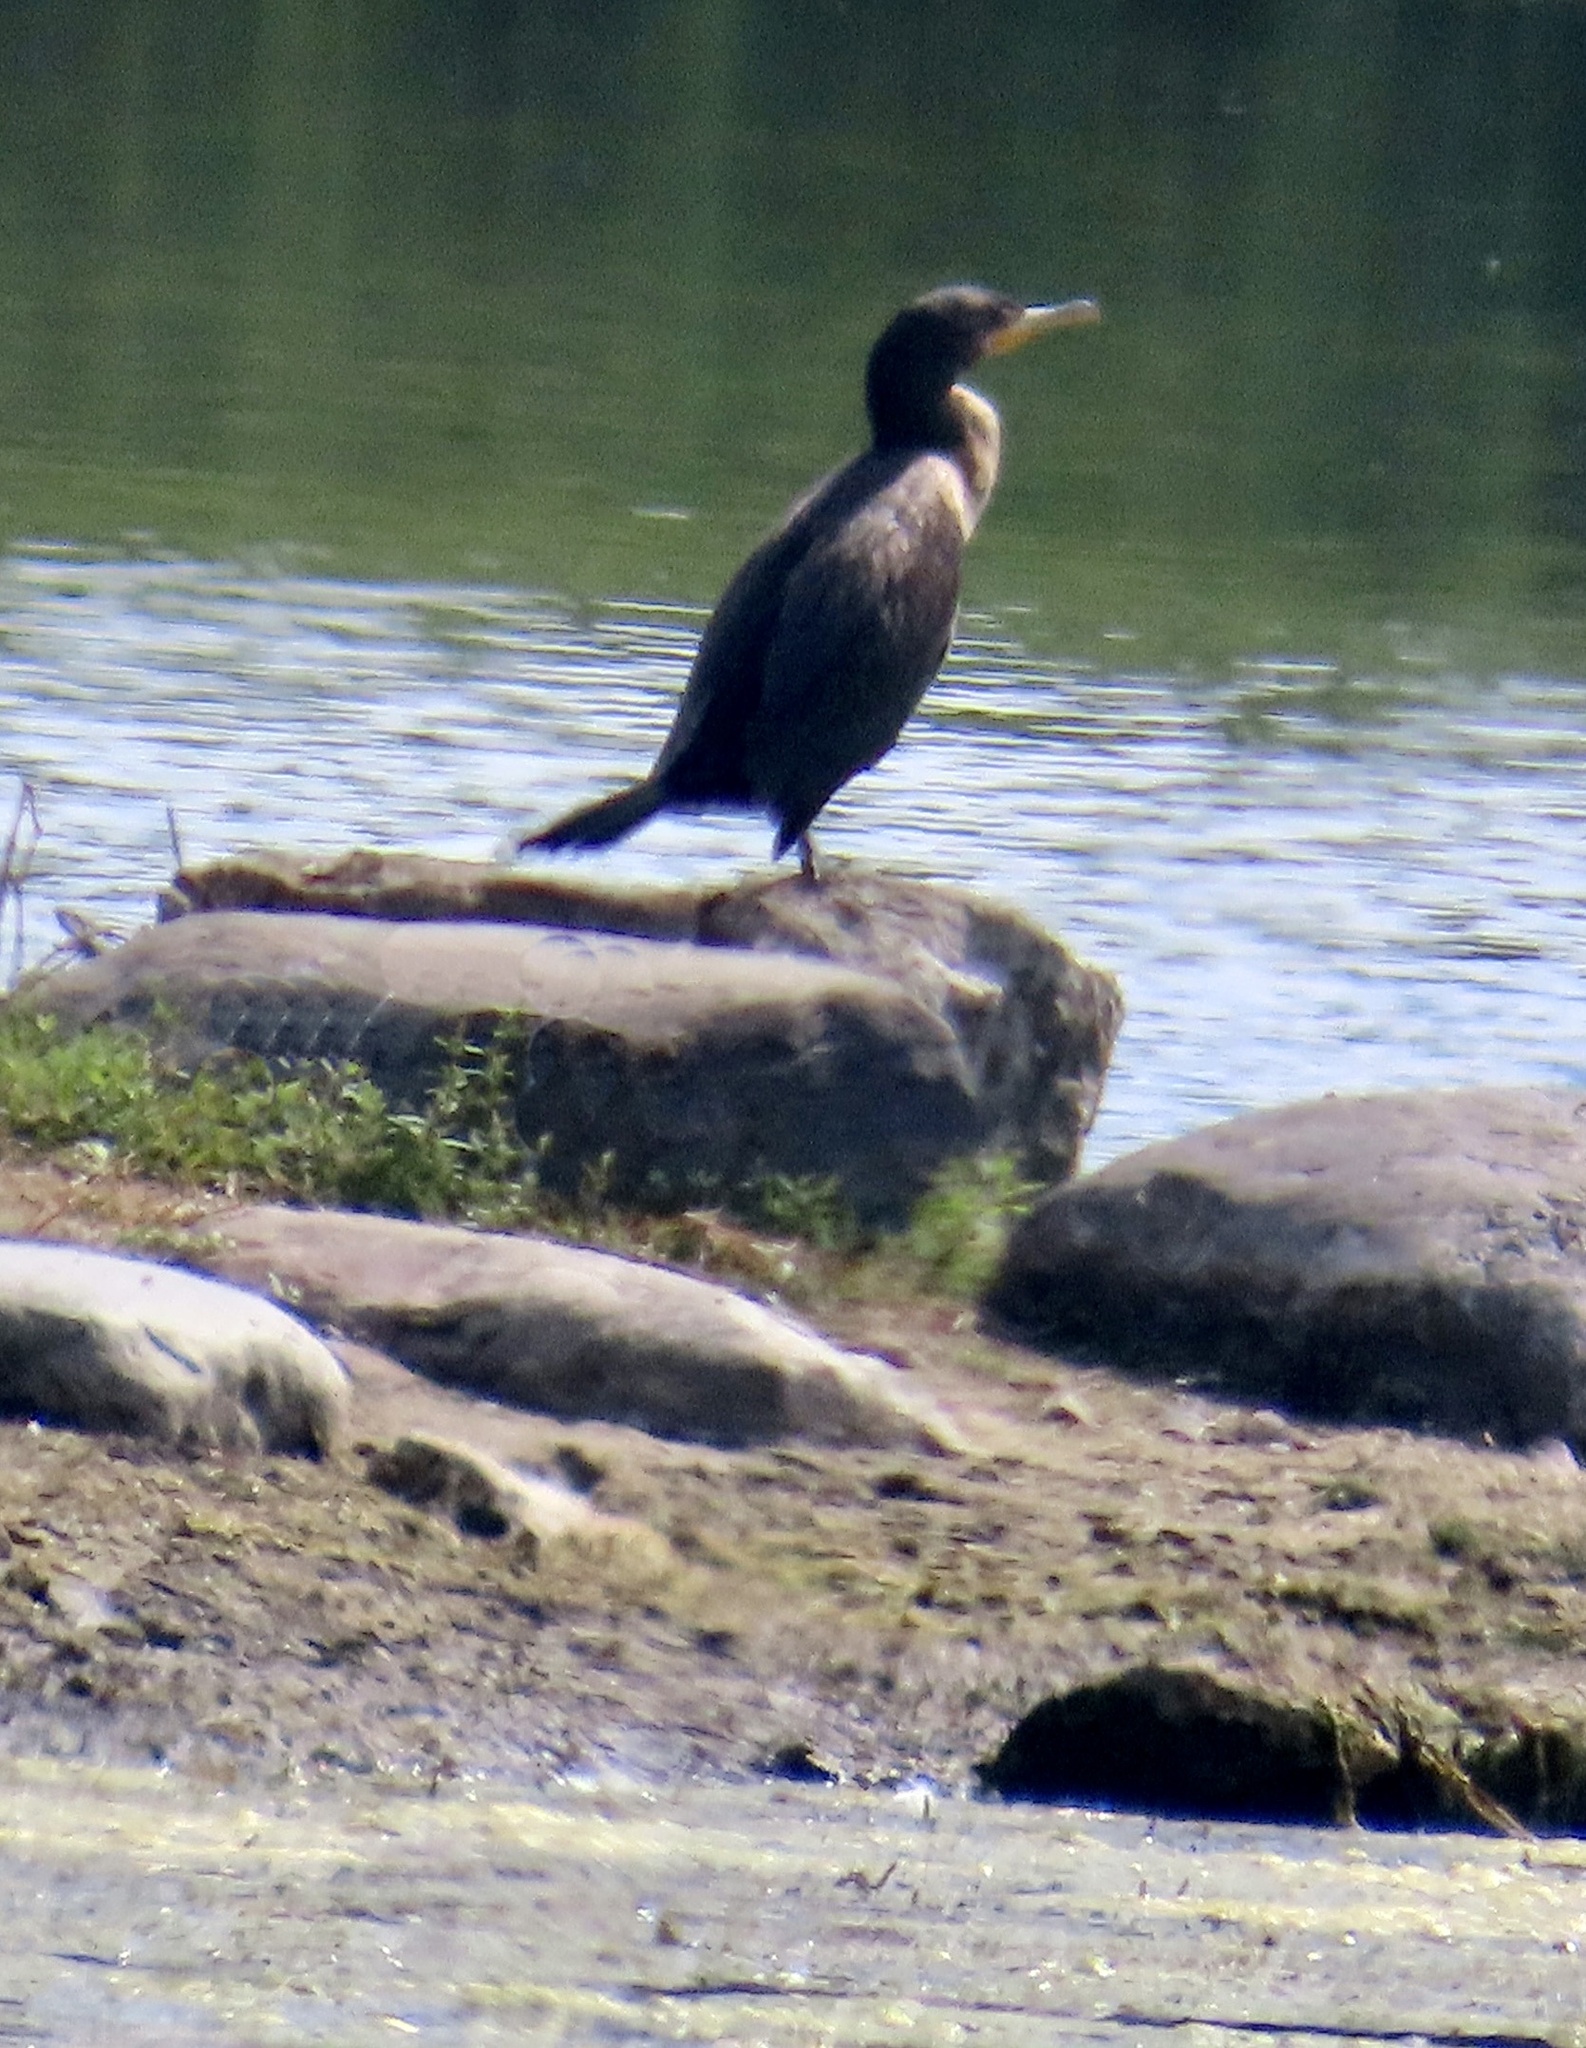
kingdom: Animalia
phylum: Chordata
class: Aves
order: Suliformes
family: Phalacrocoracidae
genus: Phalacrocorax
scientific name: Phalacrocorax auritus
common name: Double-crested cormorant
